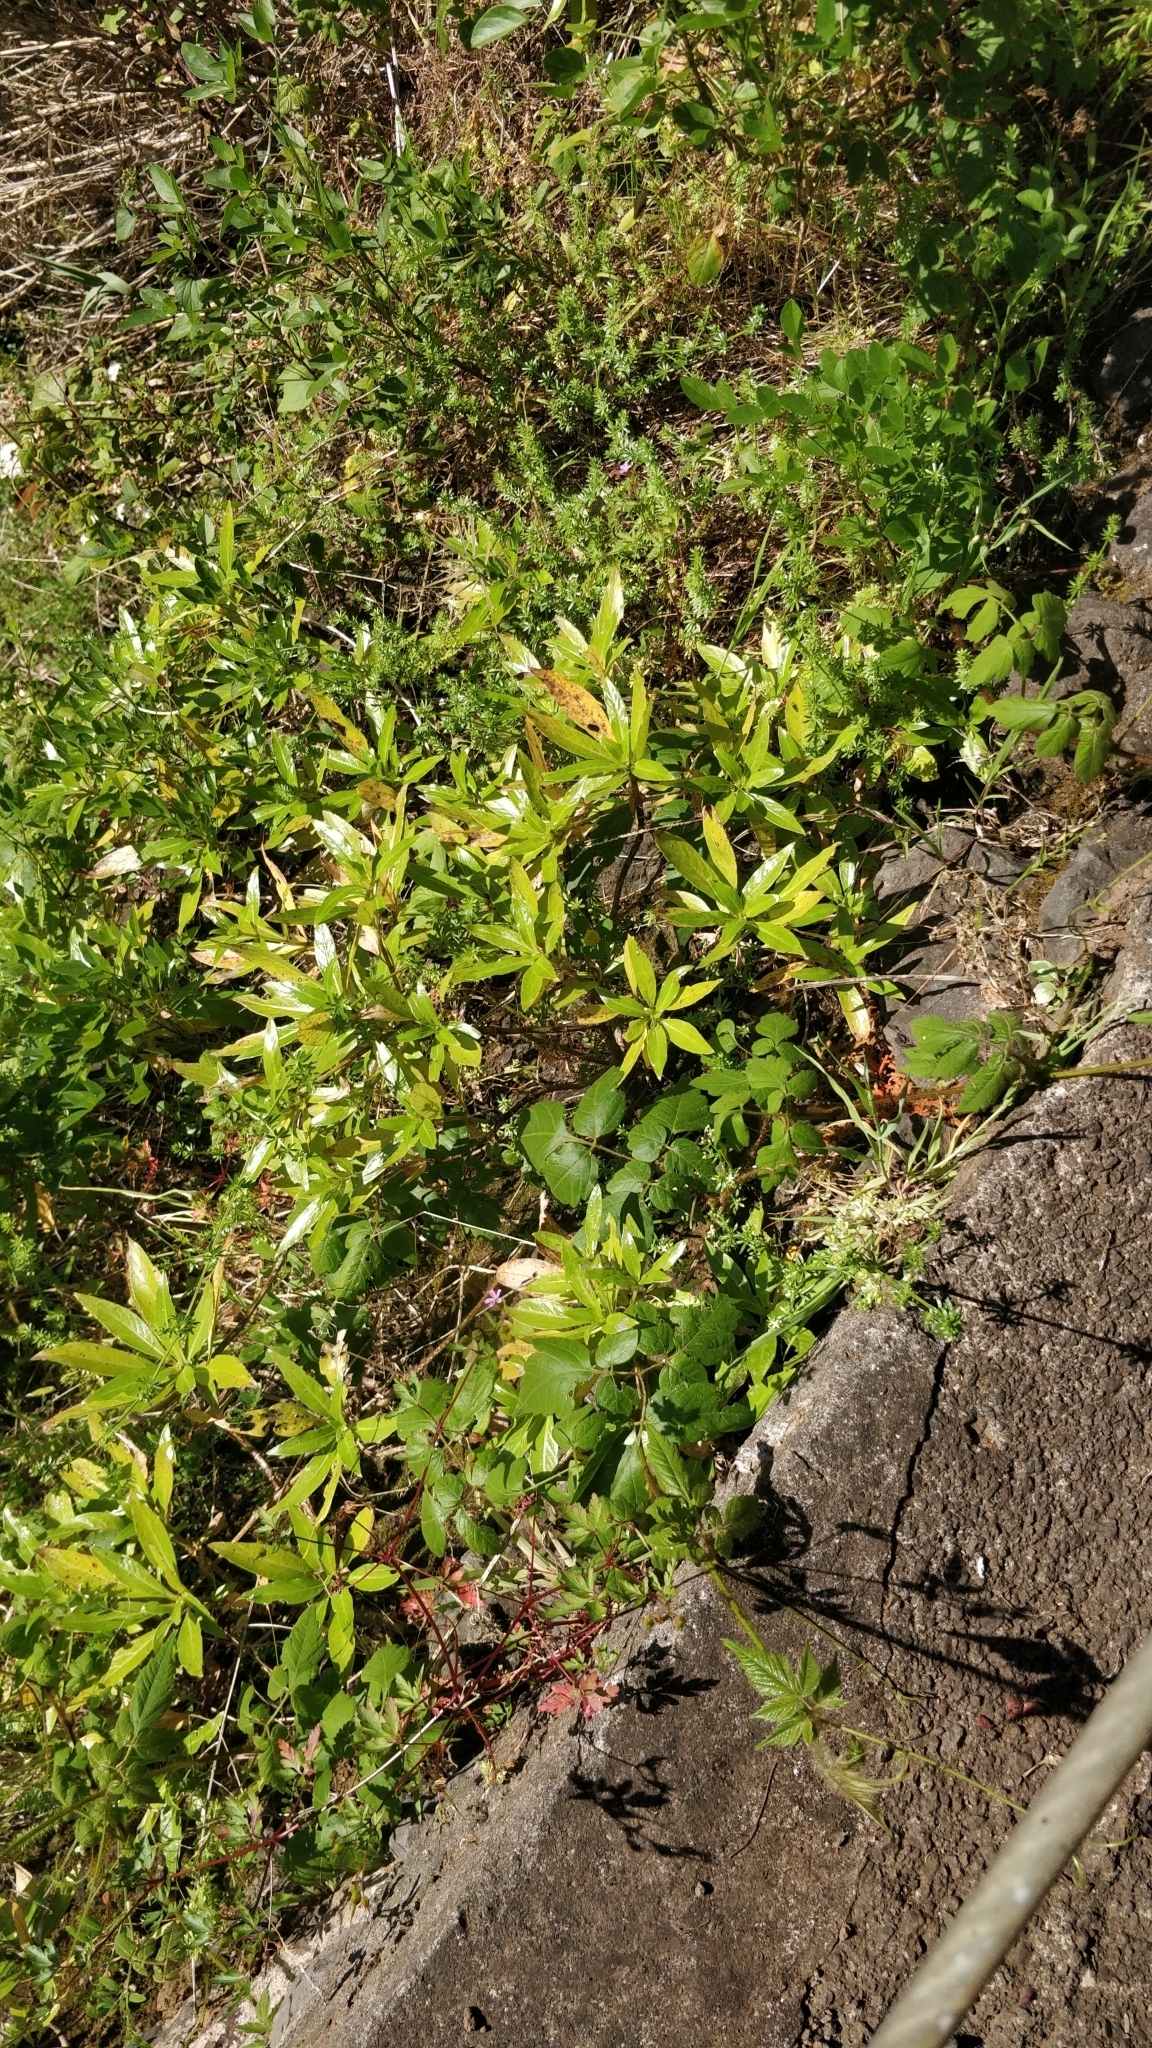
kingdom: Plantae
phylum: Tracheophyta
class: Magnoliopsida
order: Gentianales
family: Rubiaceae
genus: Phyllis
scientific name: Phyllis nobla
